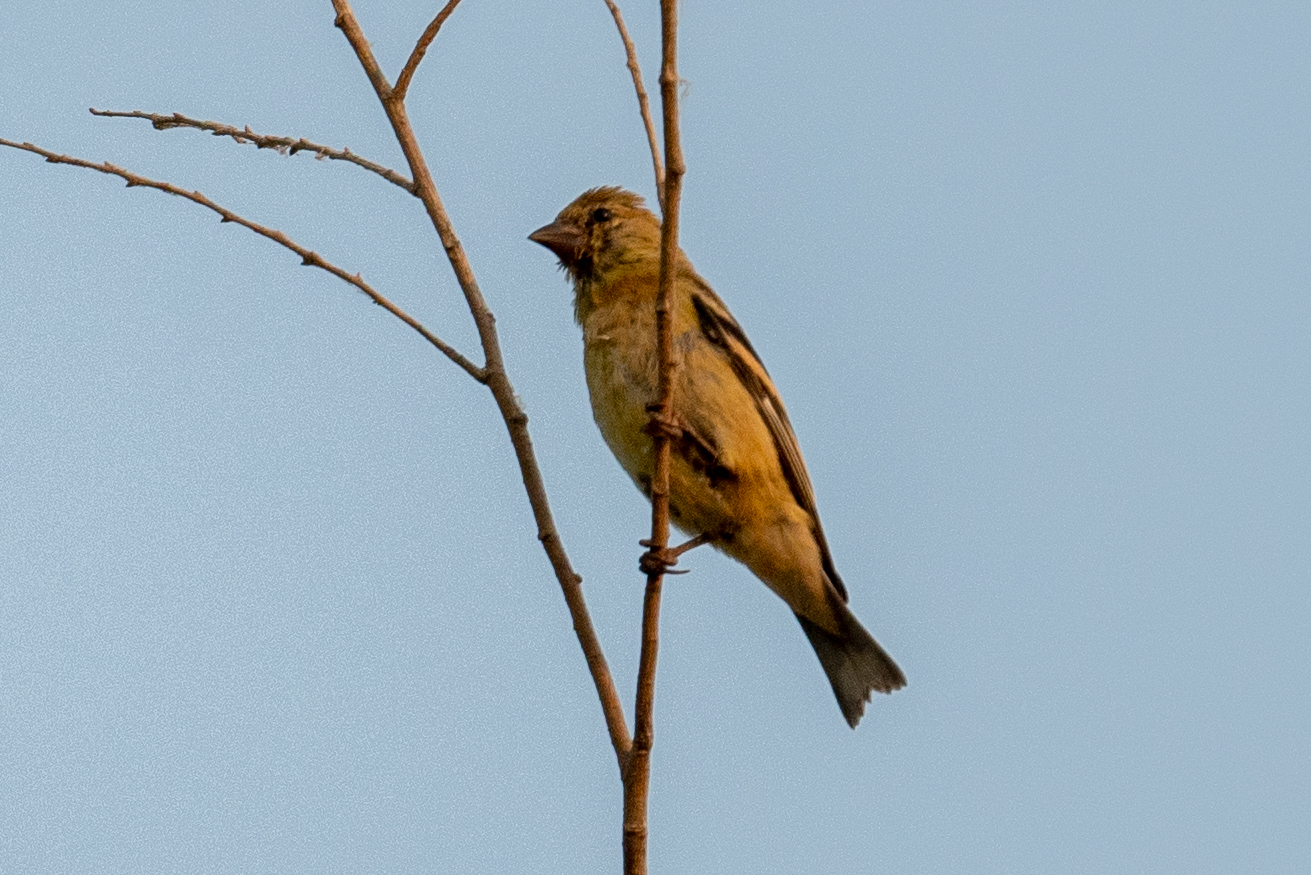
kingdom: Animalia
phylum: Chordata
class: Aves
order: Passeriformes
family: Fringillidae
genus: Spinus
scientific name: Spinus psaltria
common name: Lesser goldfinch
